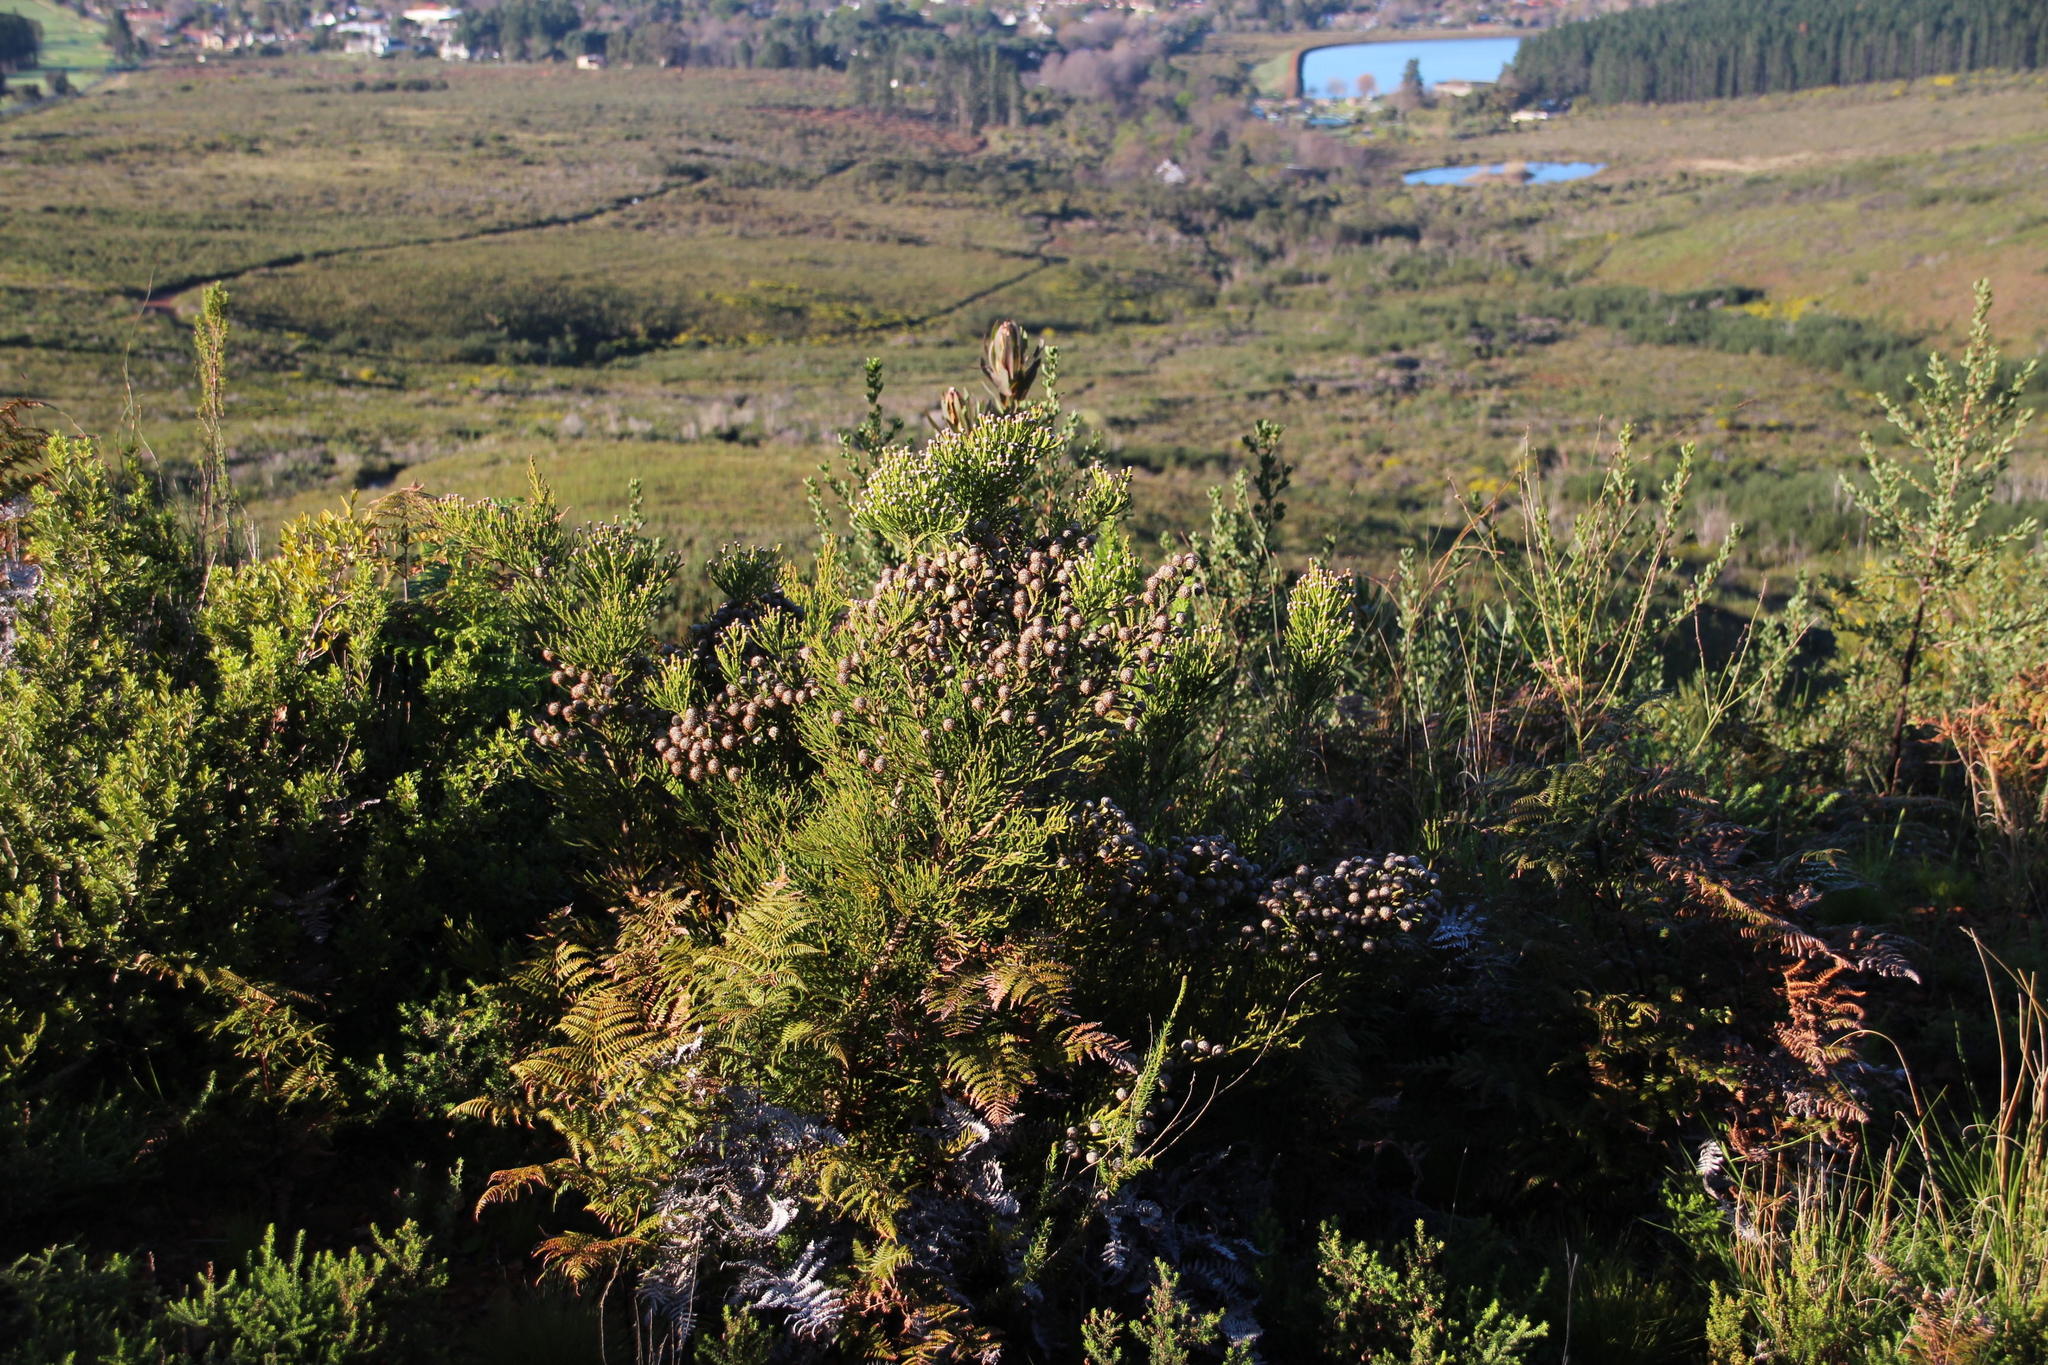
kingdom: Plantae
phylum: Tracheophyta
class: Magnoliopsida
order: Bruniales
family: Bruniaceae
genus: Brunia
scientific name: Brunia noduliflora
